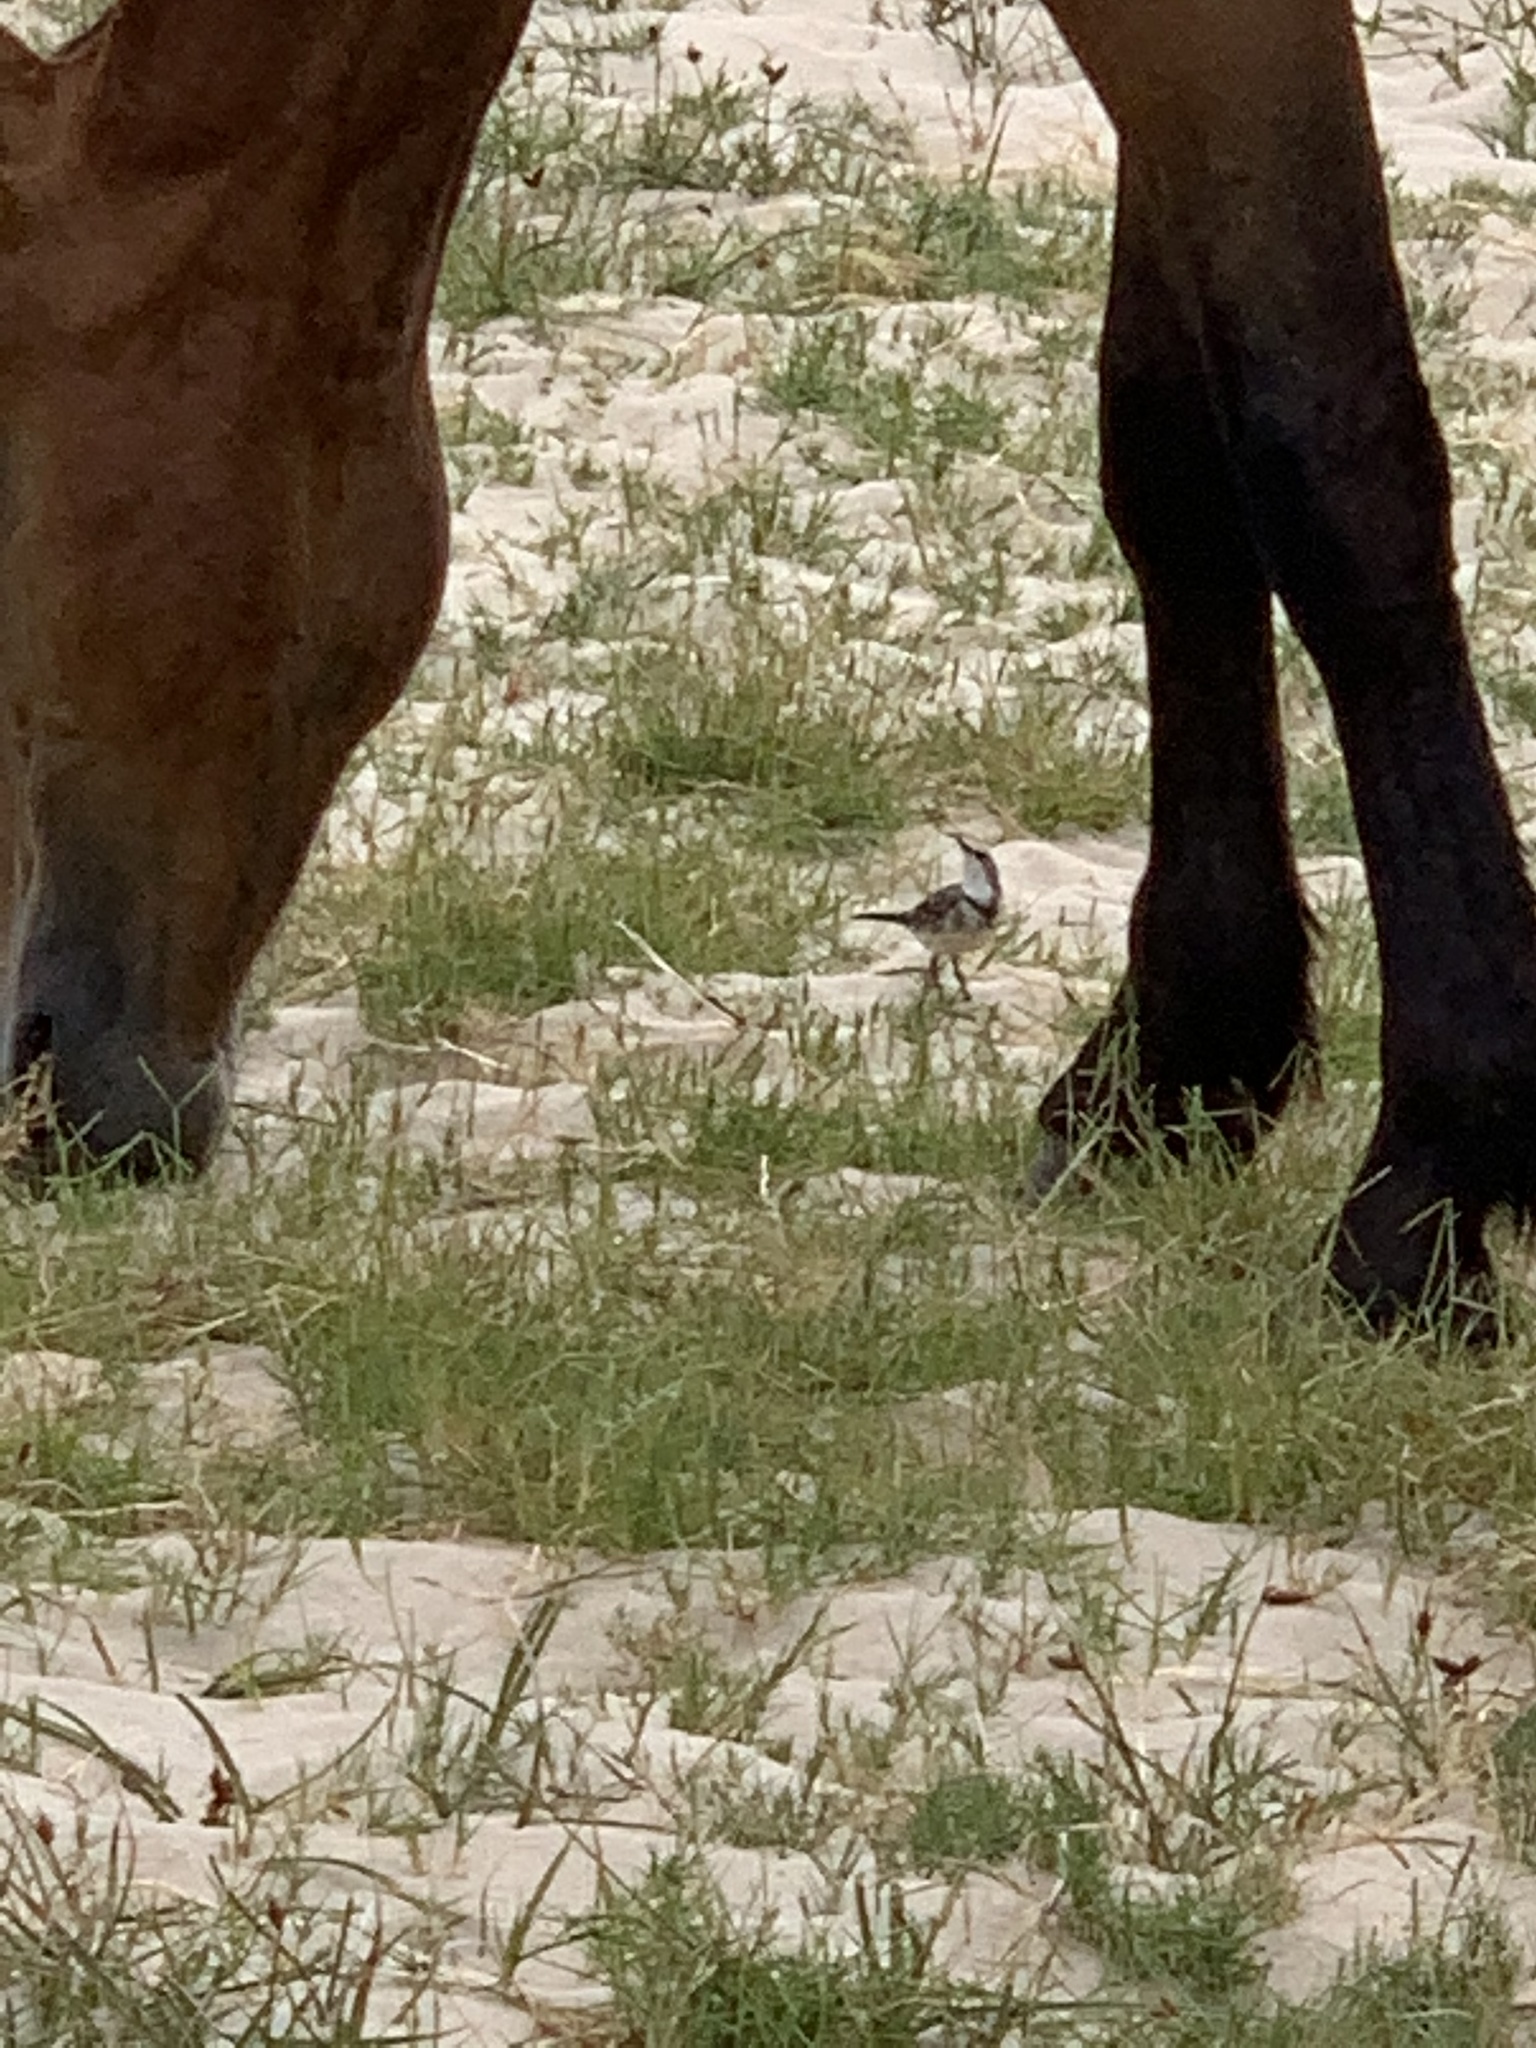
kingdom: Animalia
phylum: Chordata
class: Aves
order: Passeriformes
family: Motacillidae
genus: Motacilla
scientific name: Motacilla capensis
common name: Cape wagtail
